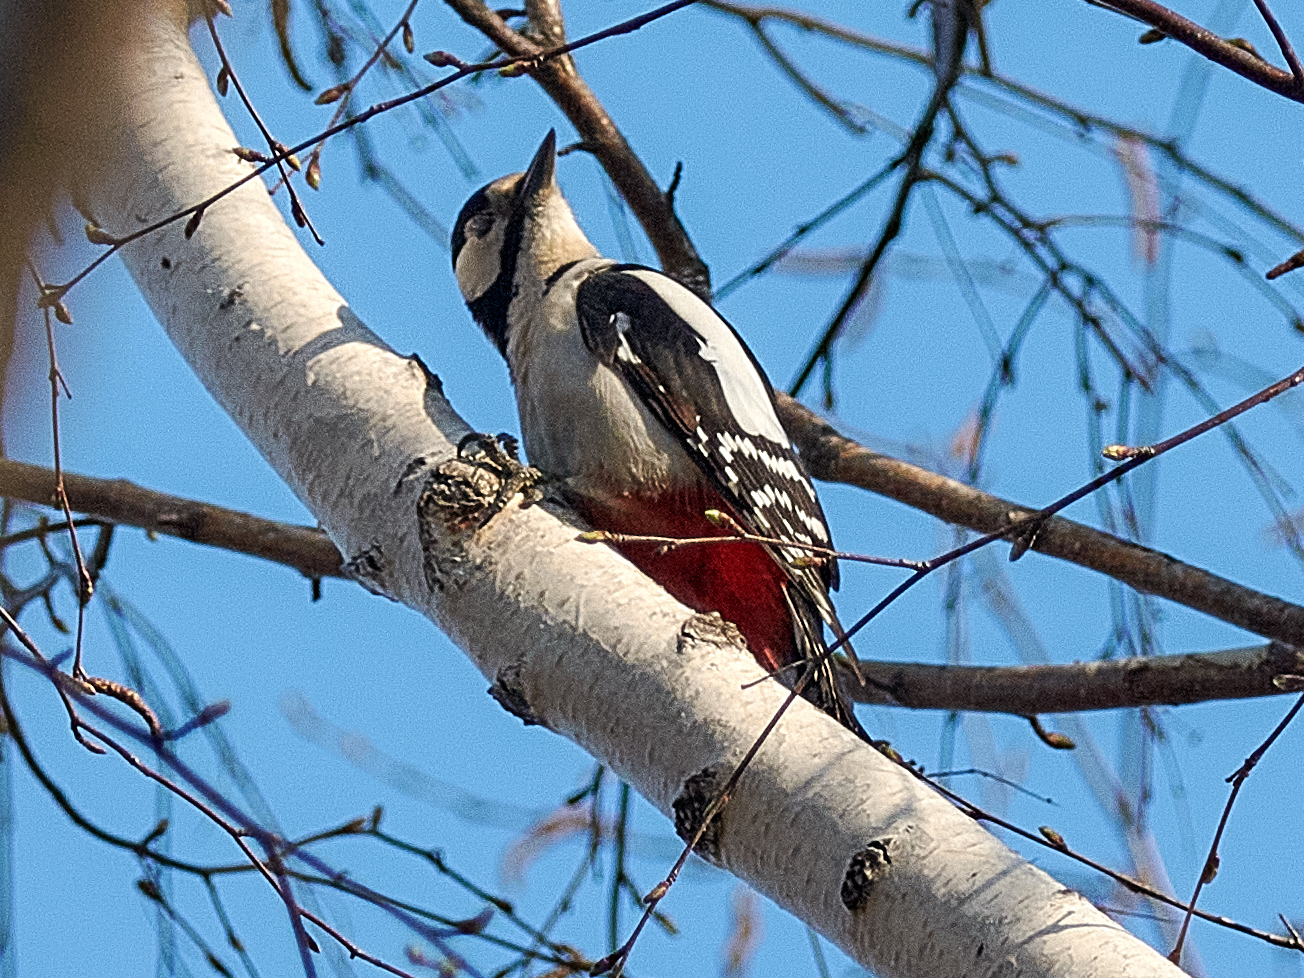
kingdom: Animalia
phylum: Chordata
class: Aves
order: Piciformes
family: Picidae
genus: Dendrocopos
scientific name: Dendrocopos major
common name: Great spotted woodpecker
